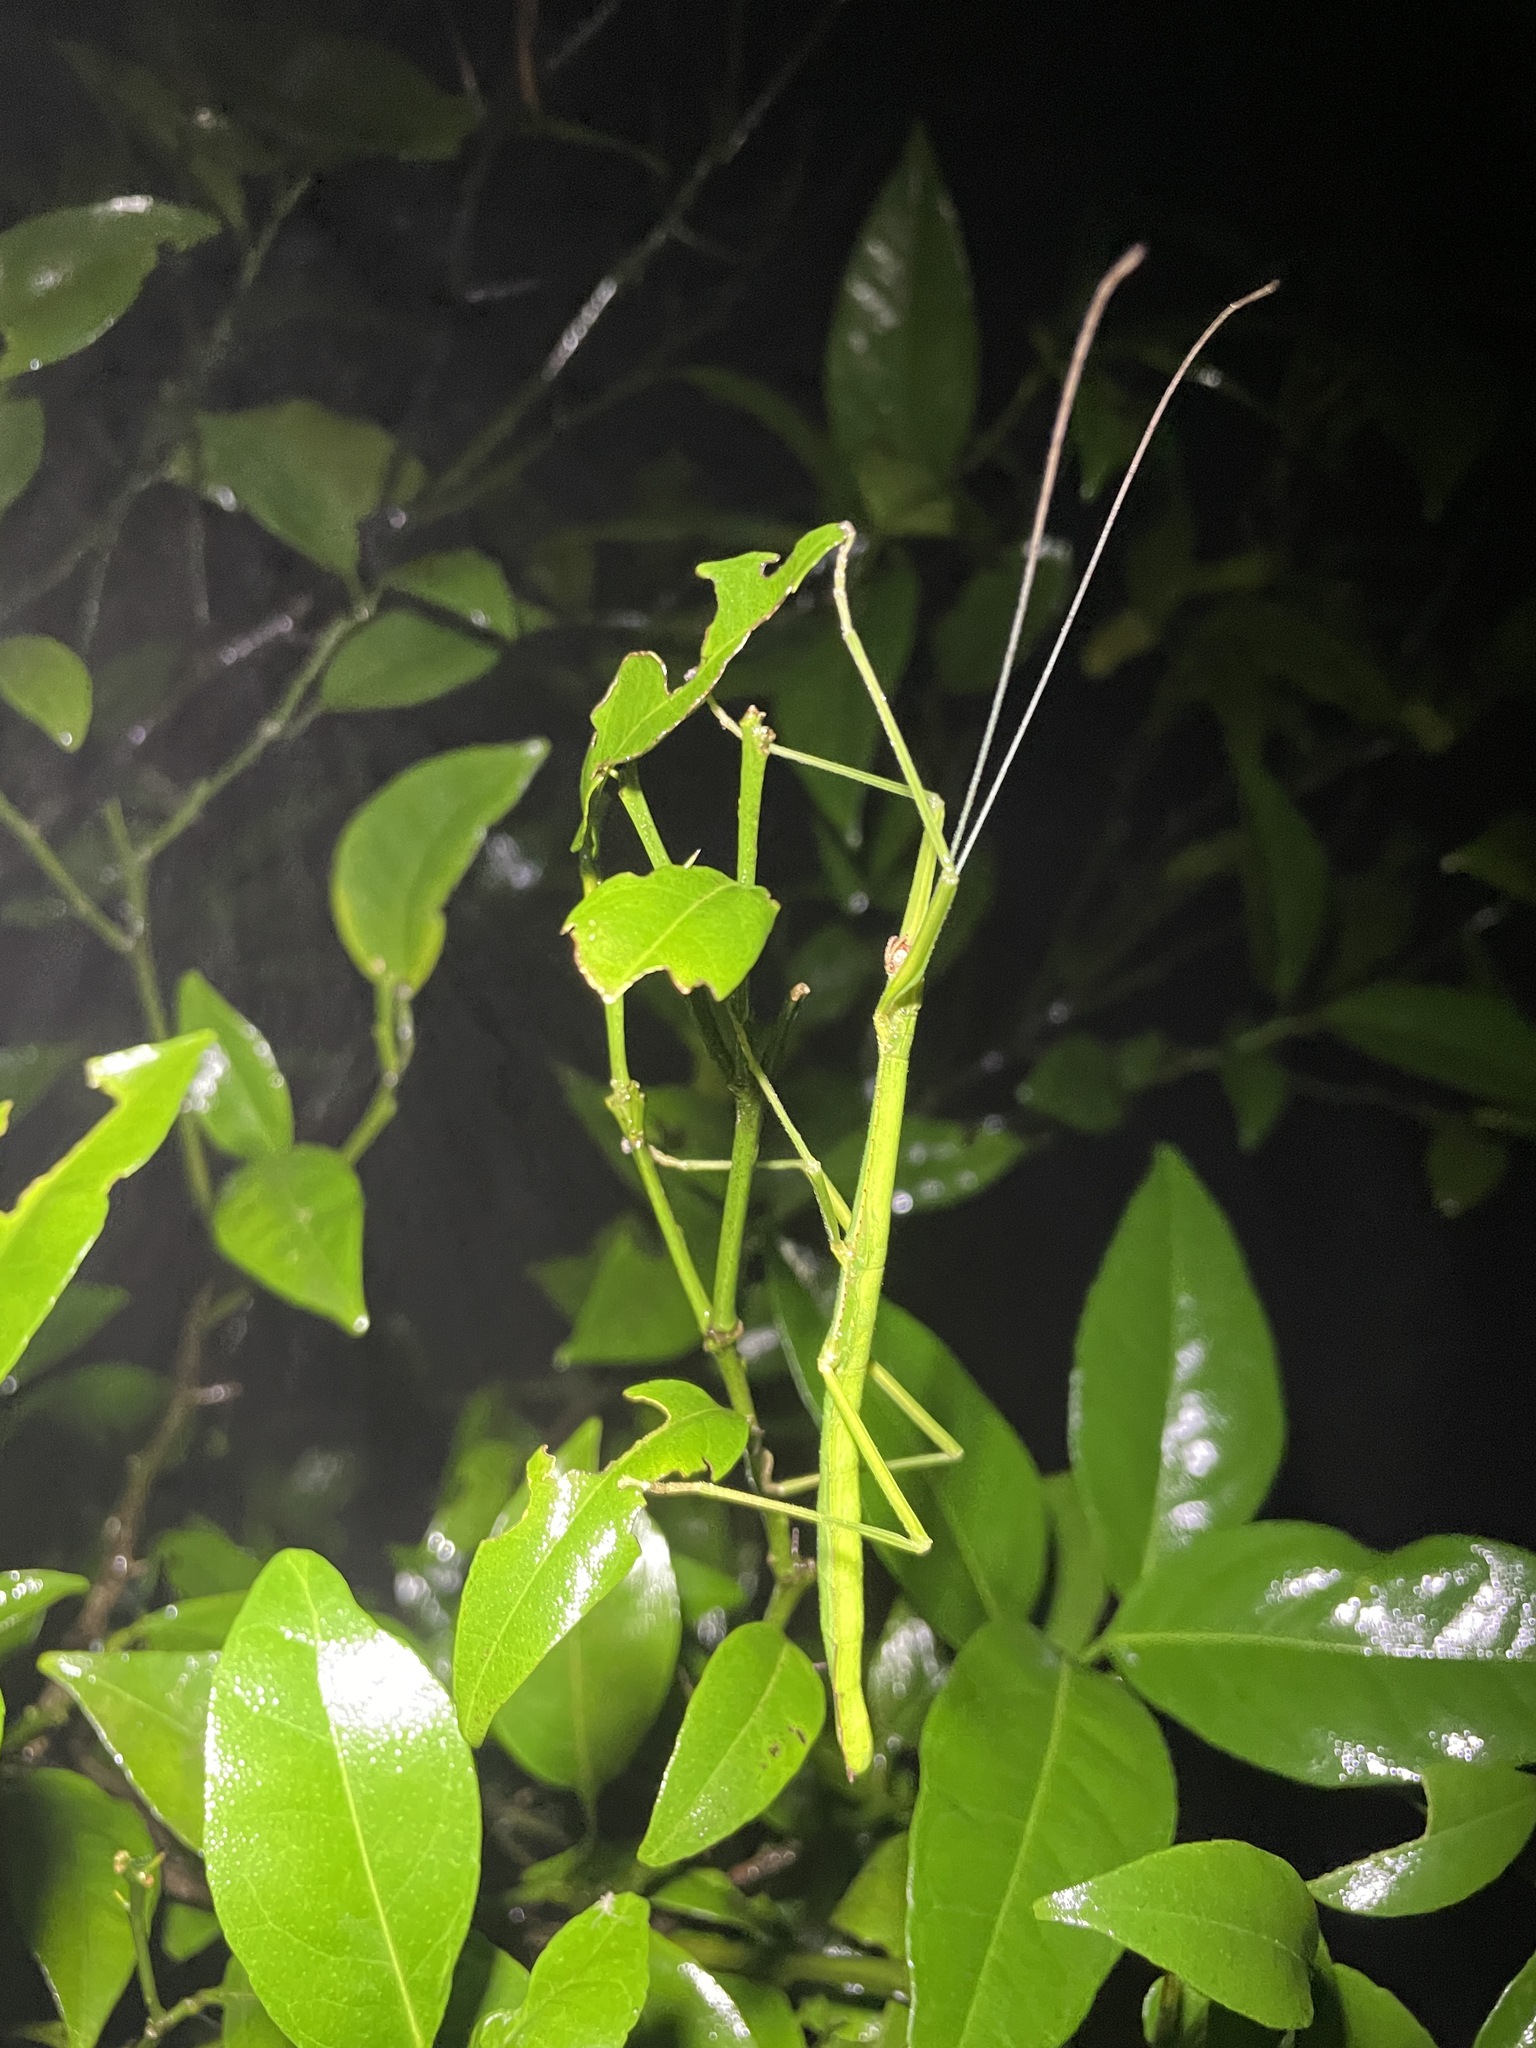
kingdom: Animalia
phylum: Arthropoda
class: Insecta
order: Phasmida
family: Lonchodidae
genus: Lopaphus
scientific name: Lopaphus balteatus
